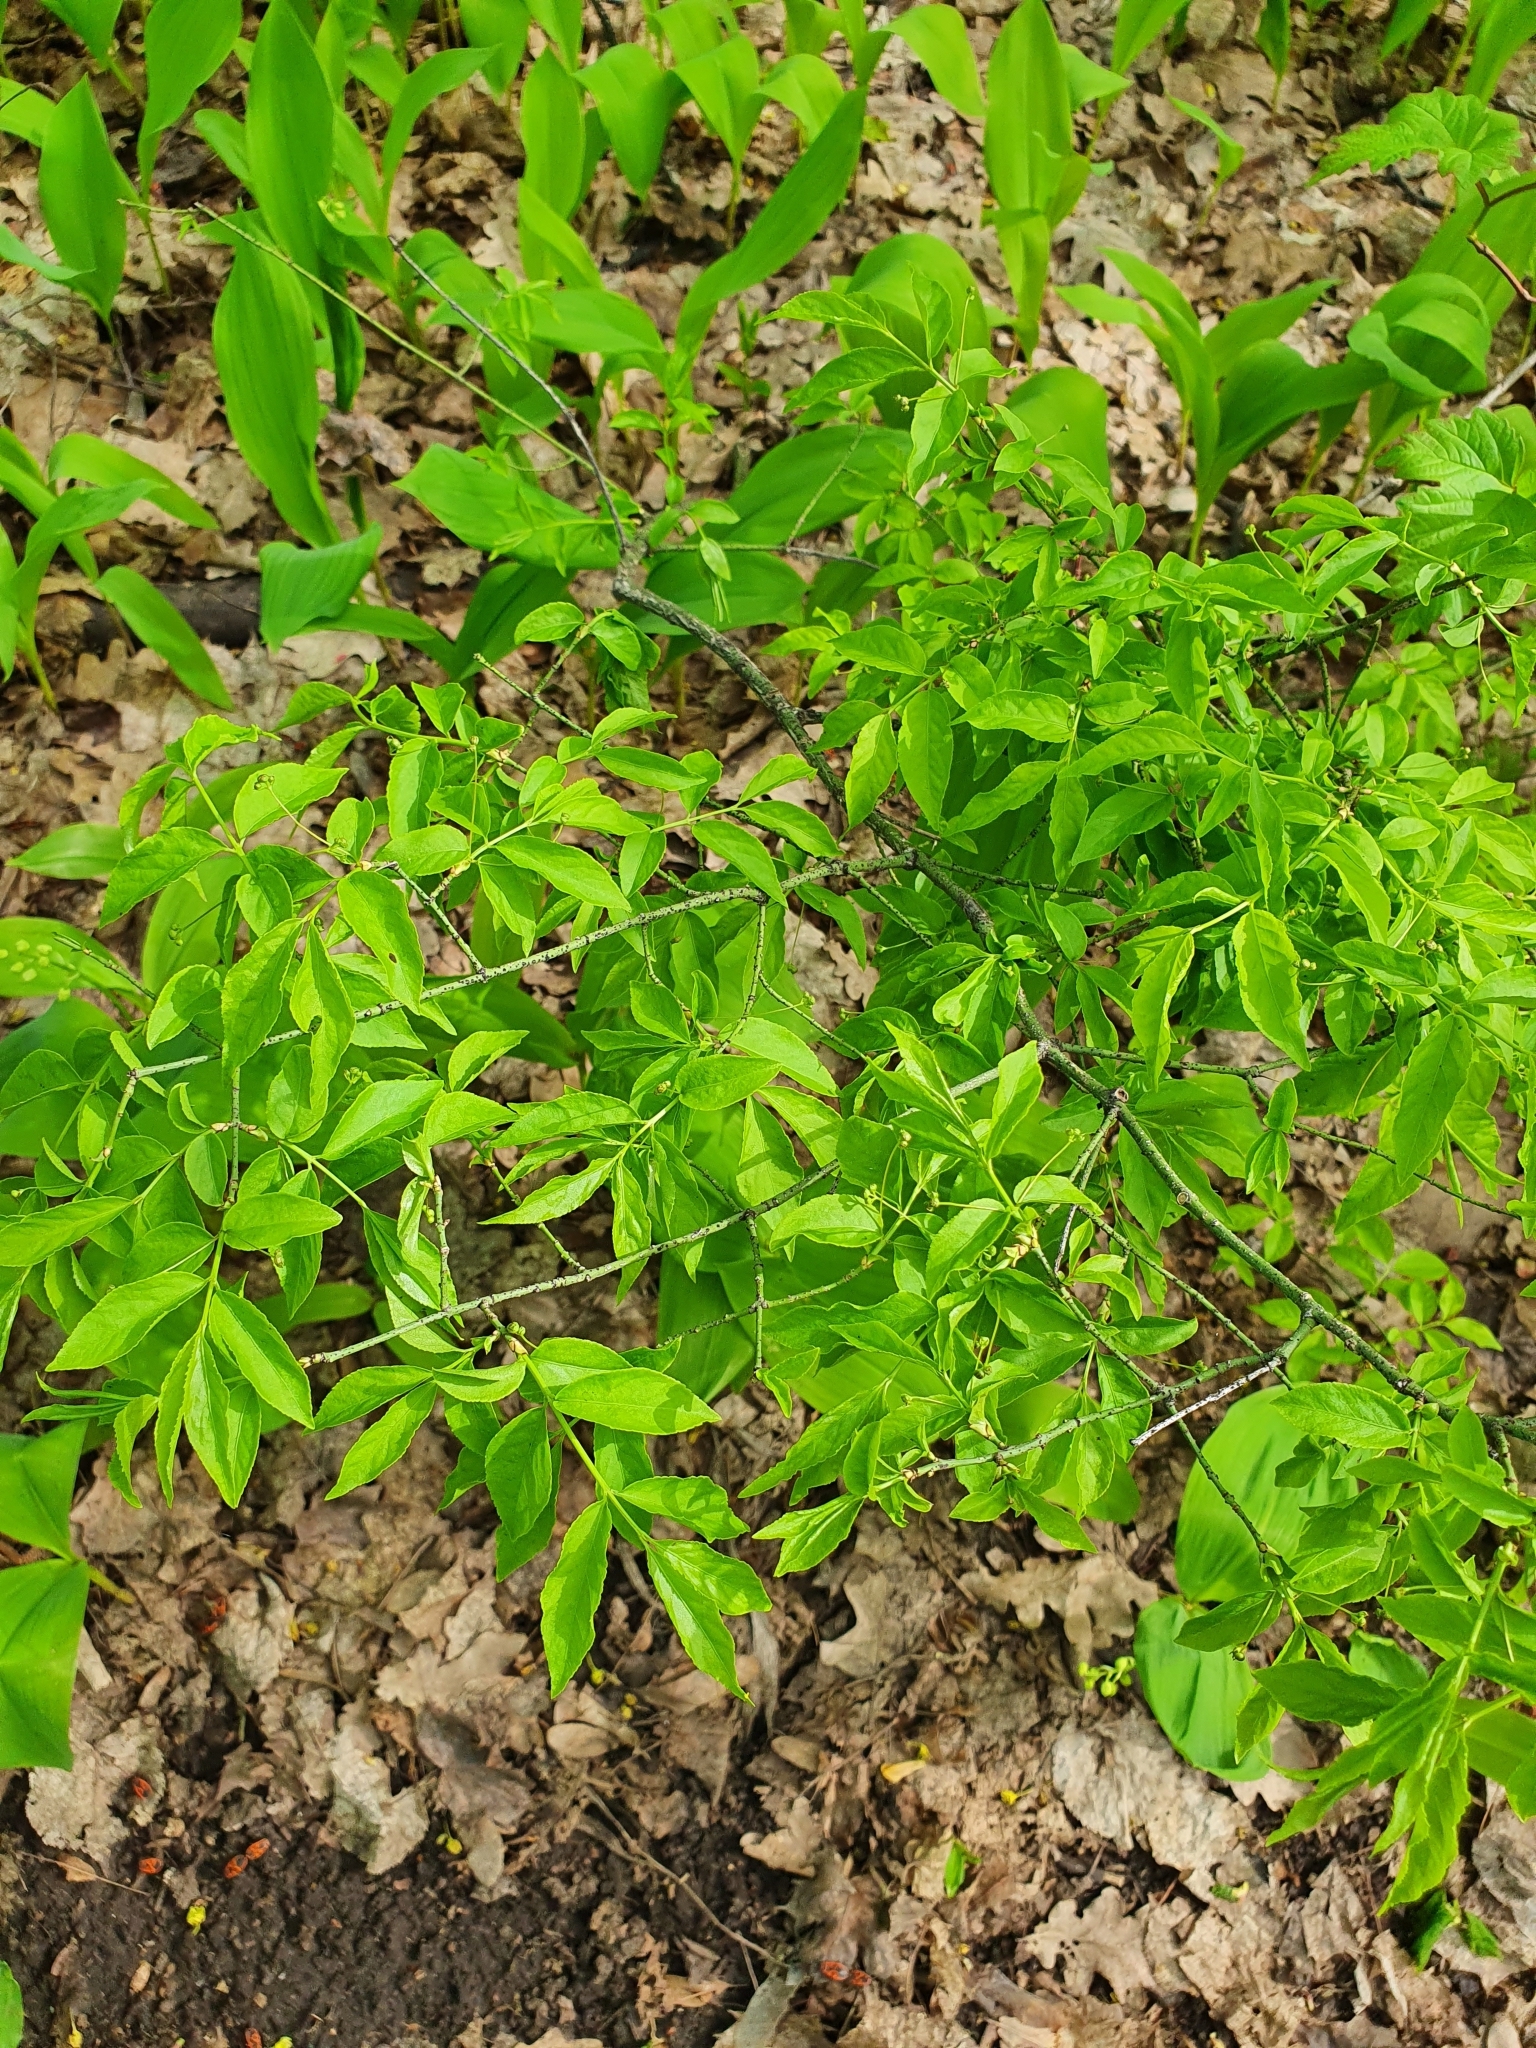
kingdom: Plantae
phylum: Tracheophyta
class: Magnoliopsida
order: Celastrales
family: Celastraceae
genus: Euonymus
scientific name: Euonymus verrucosus
